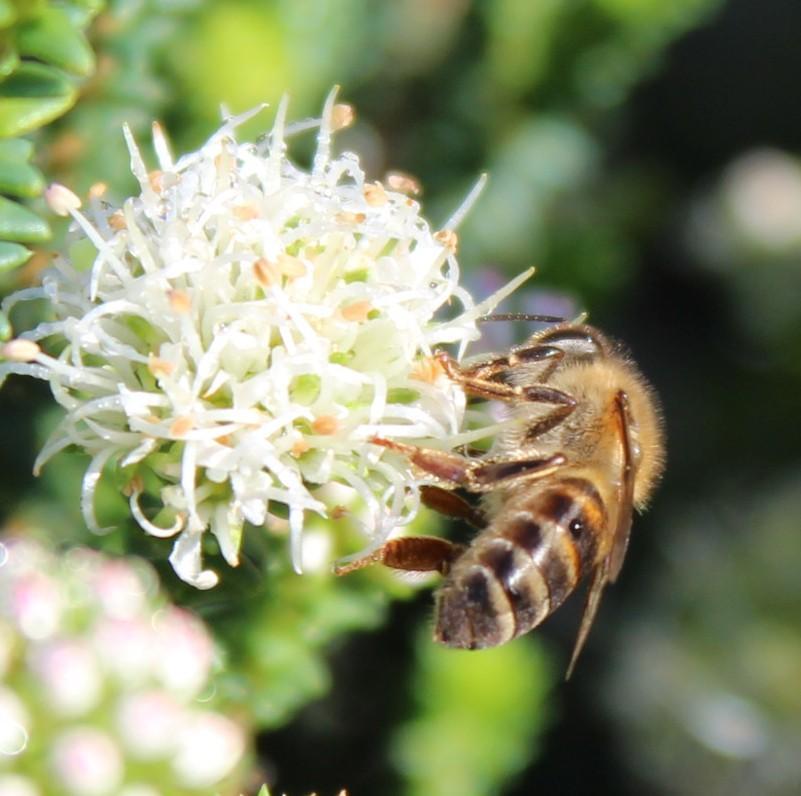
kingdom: Animalia
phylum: Arthropoda
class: Insecta
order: Hymenoptera
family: Apidae
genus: Apis
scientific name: Apis mellifera
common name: Honey bee
